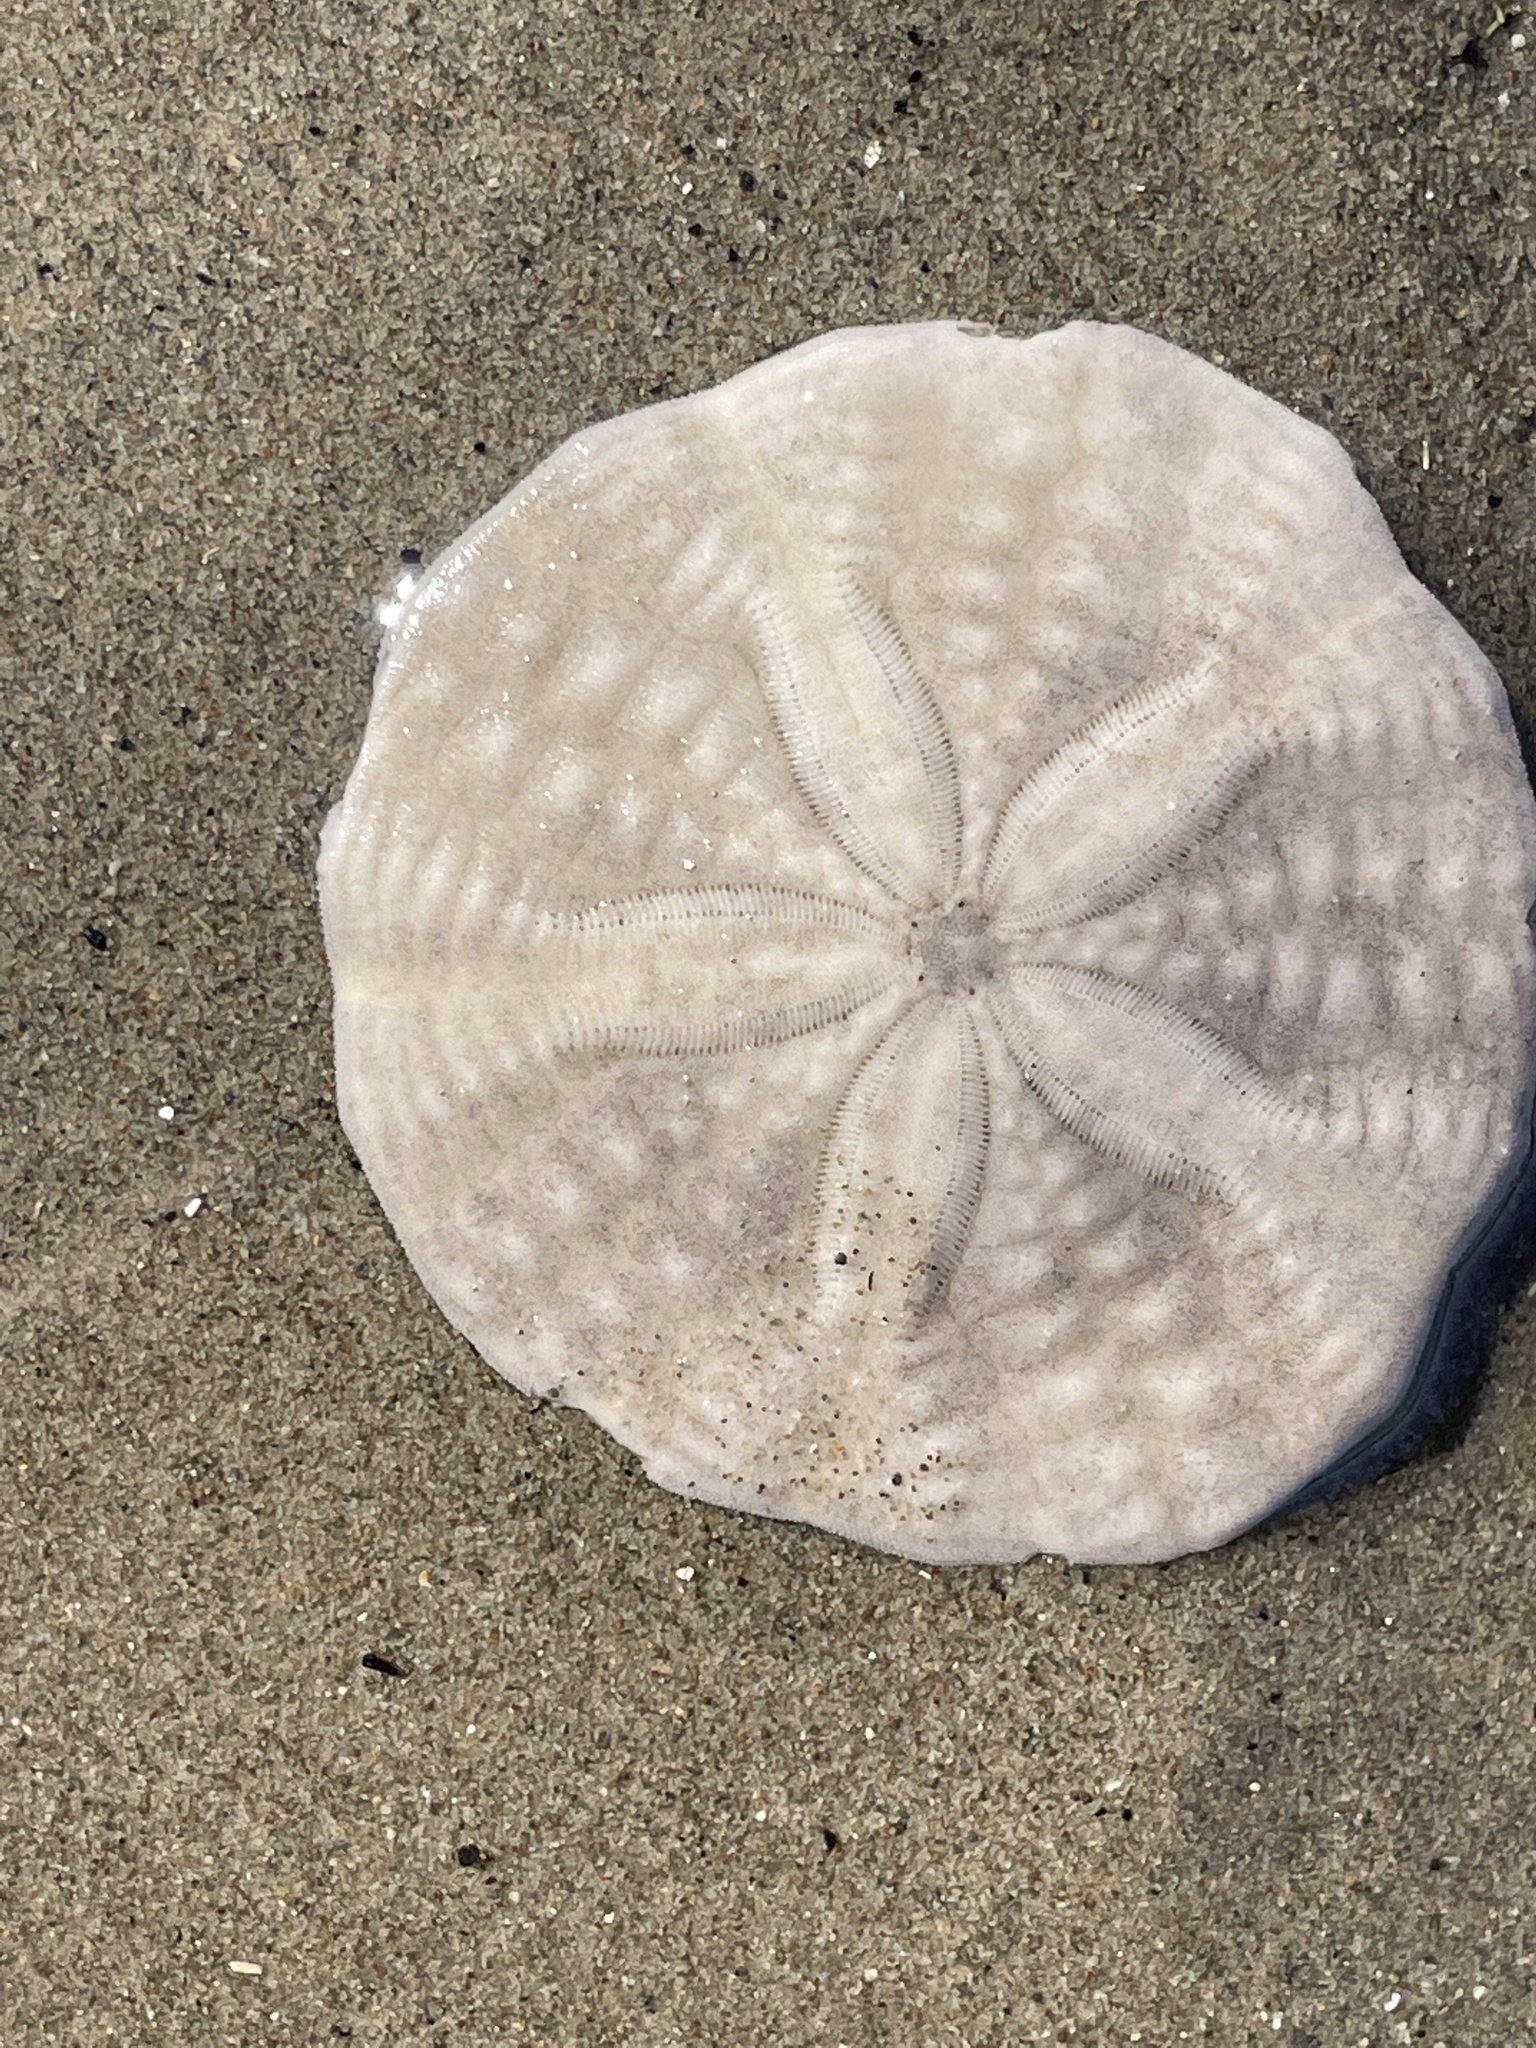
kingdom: Animalia
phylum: Echinodermata
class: Echinoidea
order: Echinolampadacea
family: Echinarachniidae
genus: Echinarachnius
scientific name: Echinarachnius parma
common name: Common sand dollar
